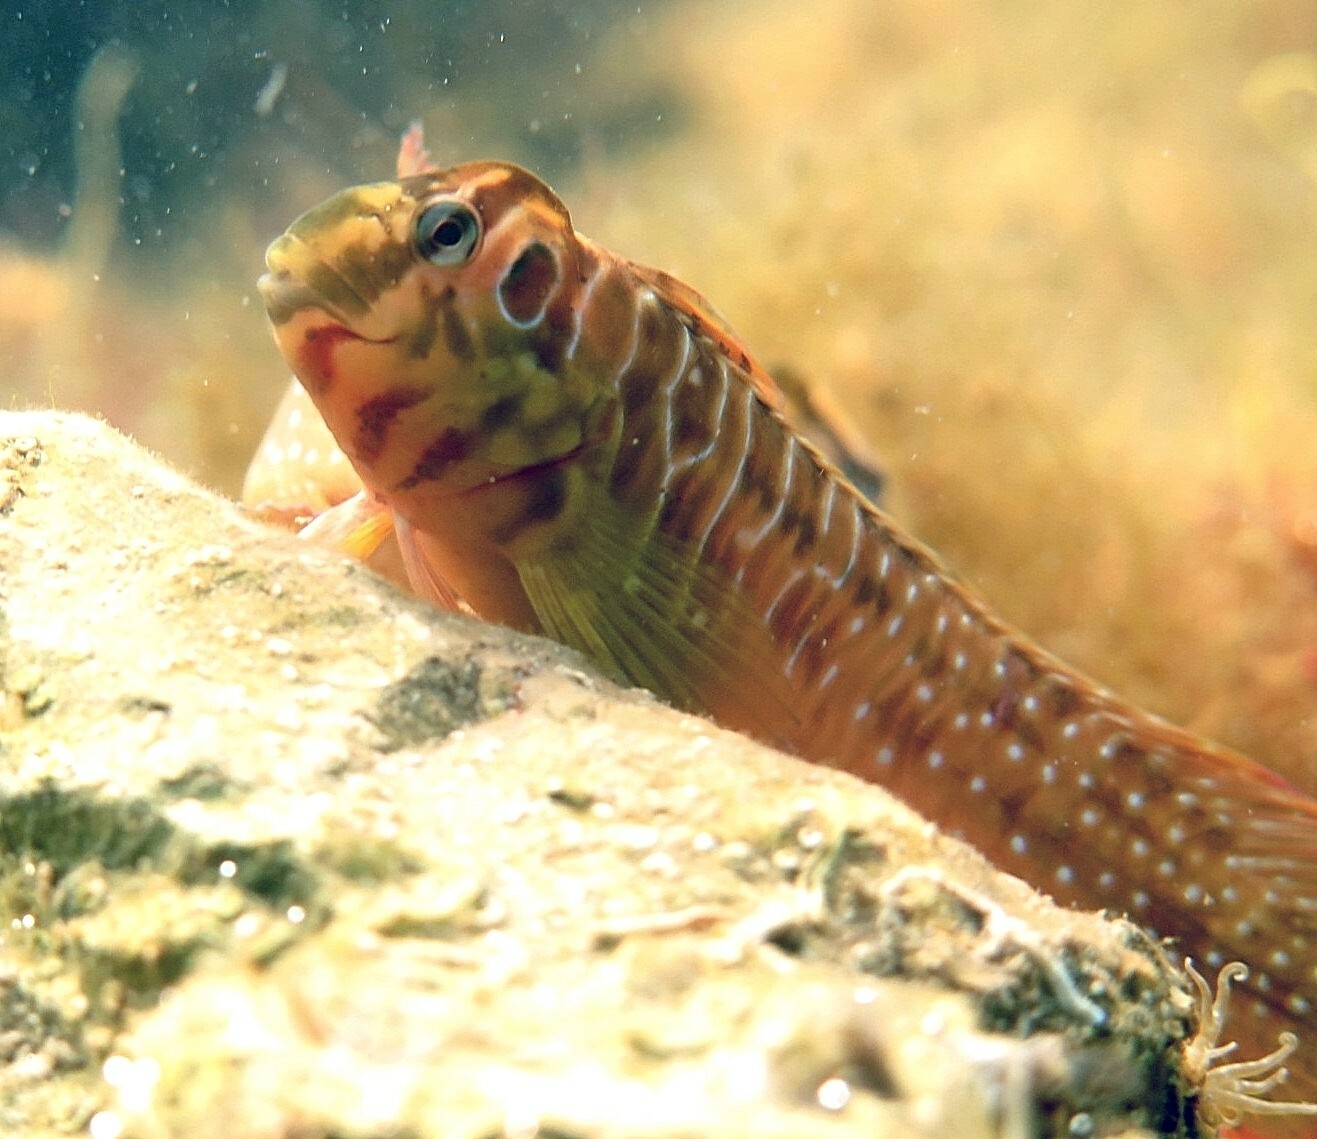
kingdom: Animalia
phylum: Chordata
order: Perciformes
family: Blenniidae
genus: Salaria
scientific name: Salaria pavo
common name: Peacock blenny
